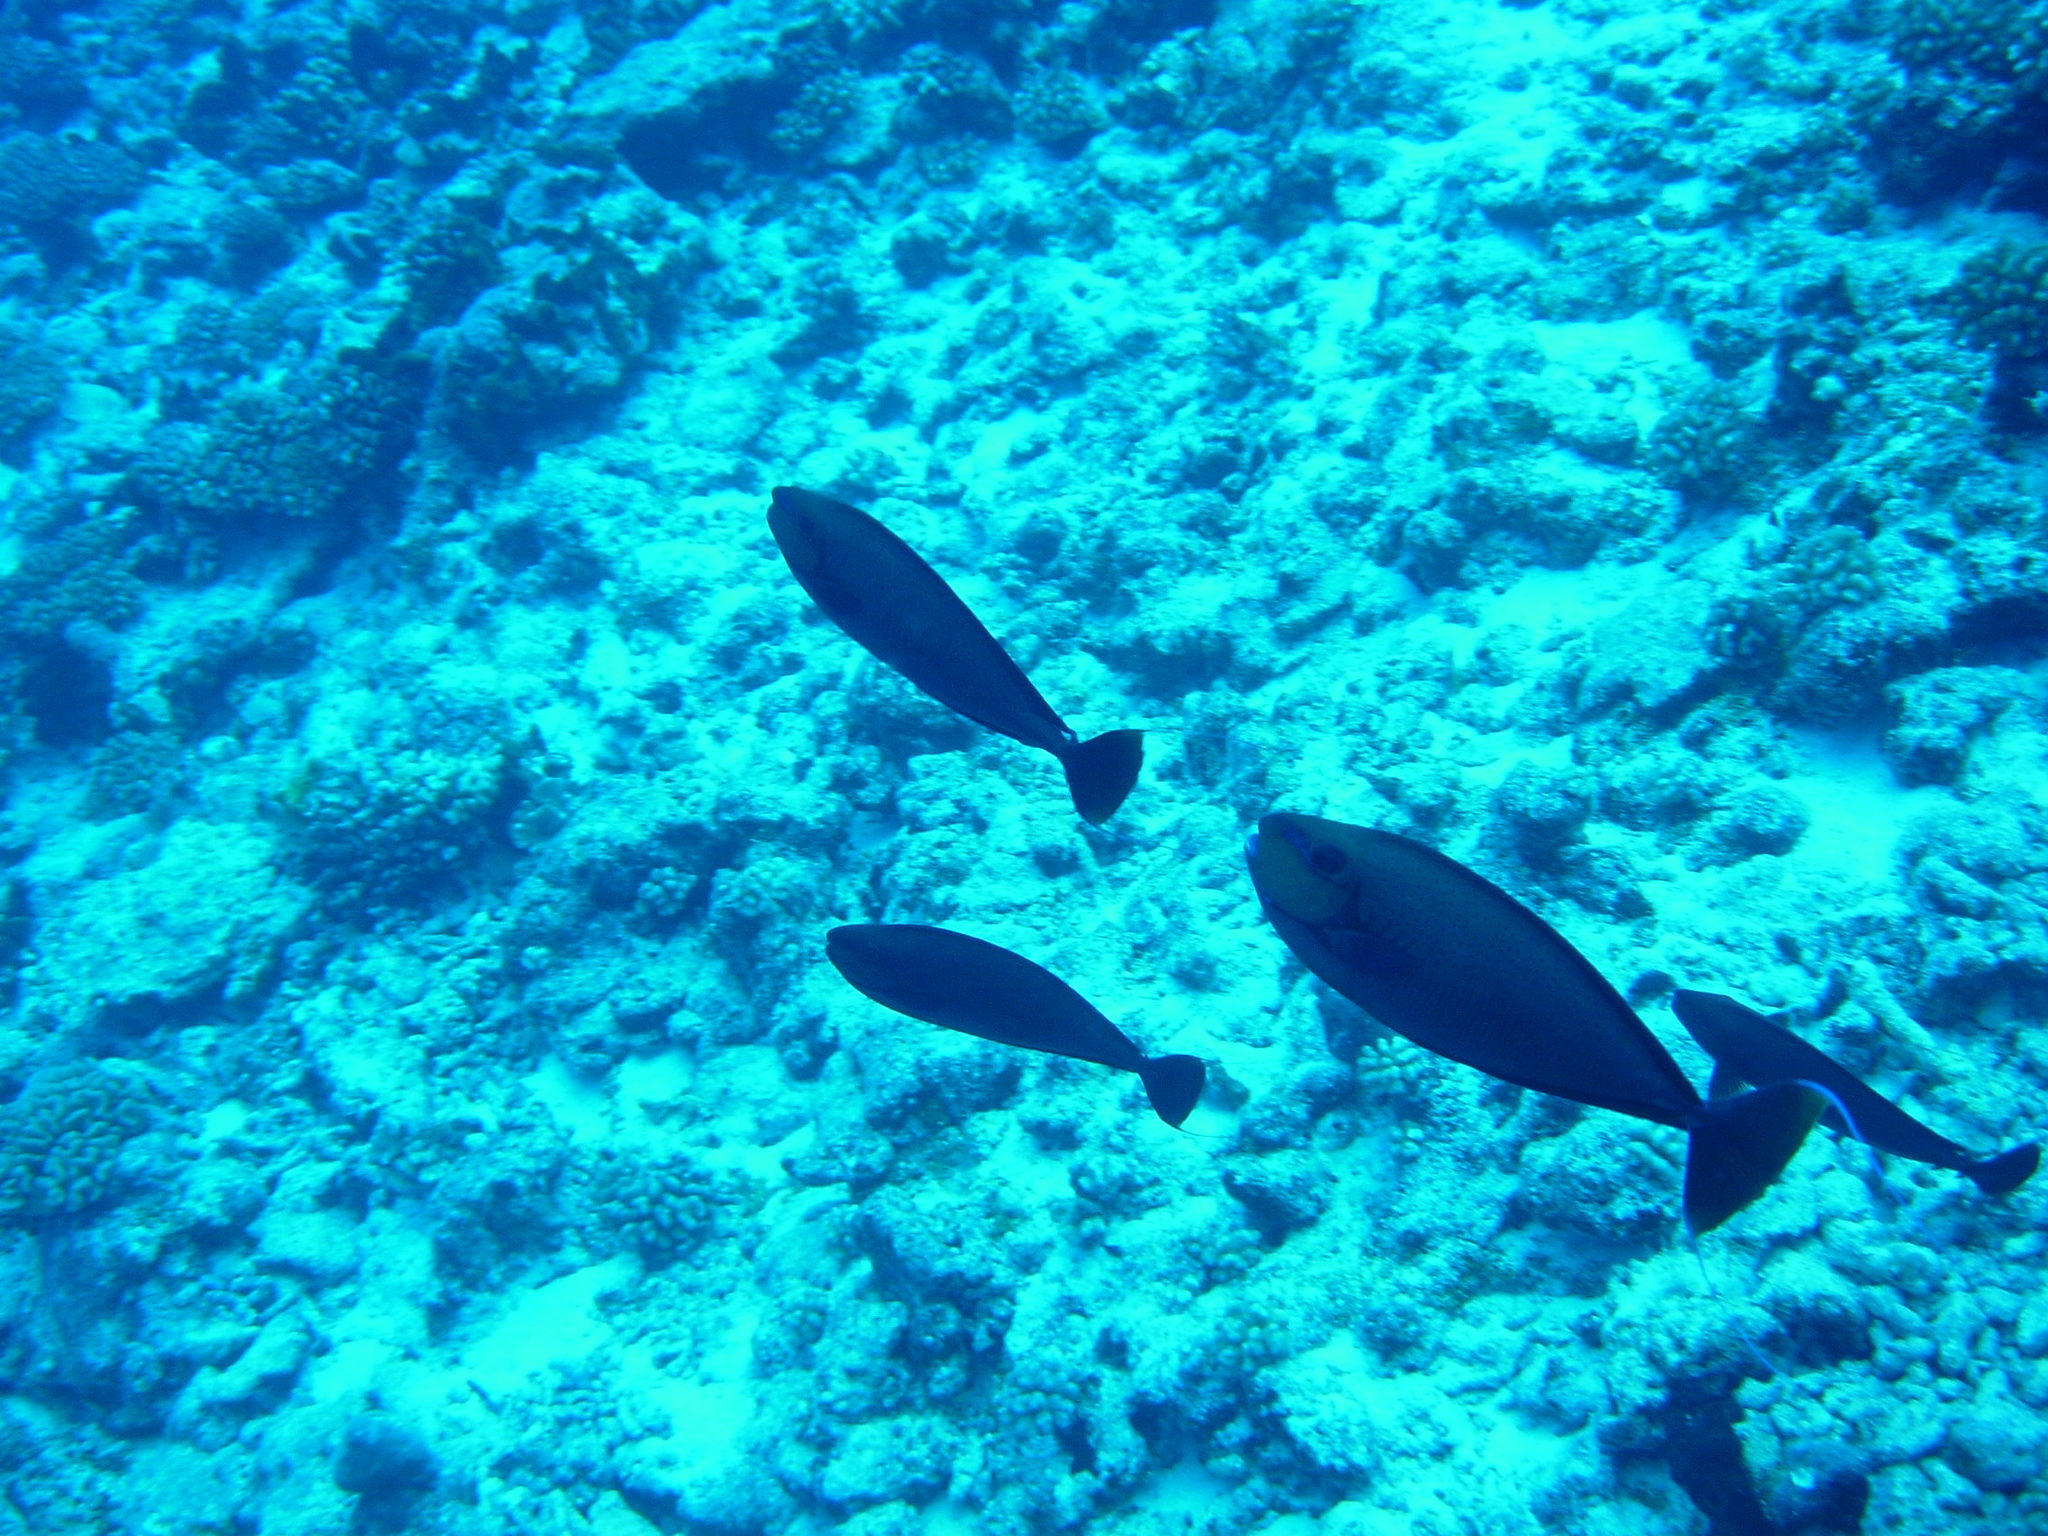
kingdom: Animalia
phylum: Chordata
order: Perciformes
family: Acanthuridae
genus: Naso
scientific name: Naso vlamingii
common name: Big-nose unicorn
